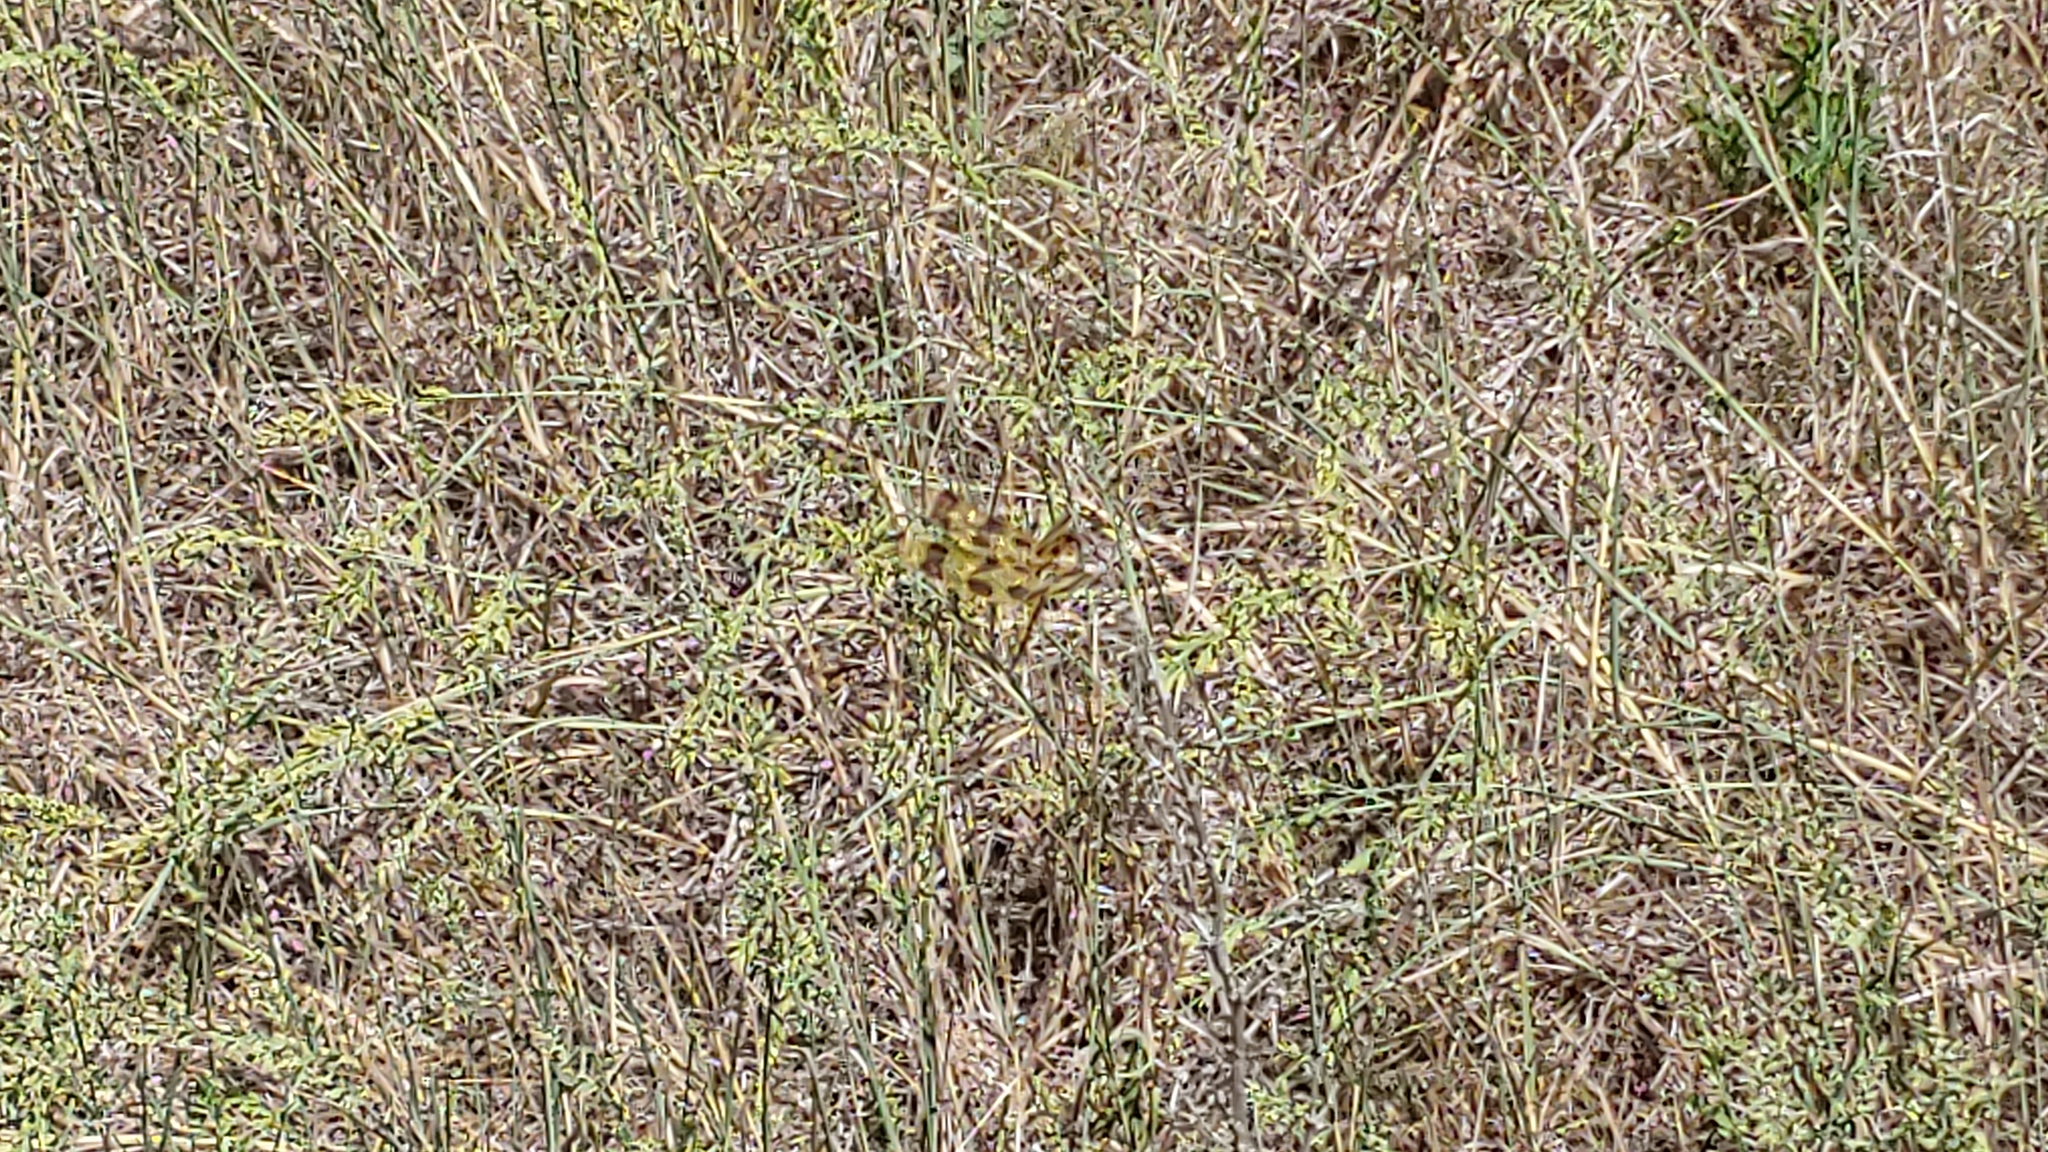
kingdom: Animalia
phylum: Arthropoda
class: Insecta
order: Odonata
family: Libellulidae
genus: Celithemis
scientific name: Celithemis eponina
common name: Halloween pennant
